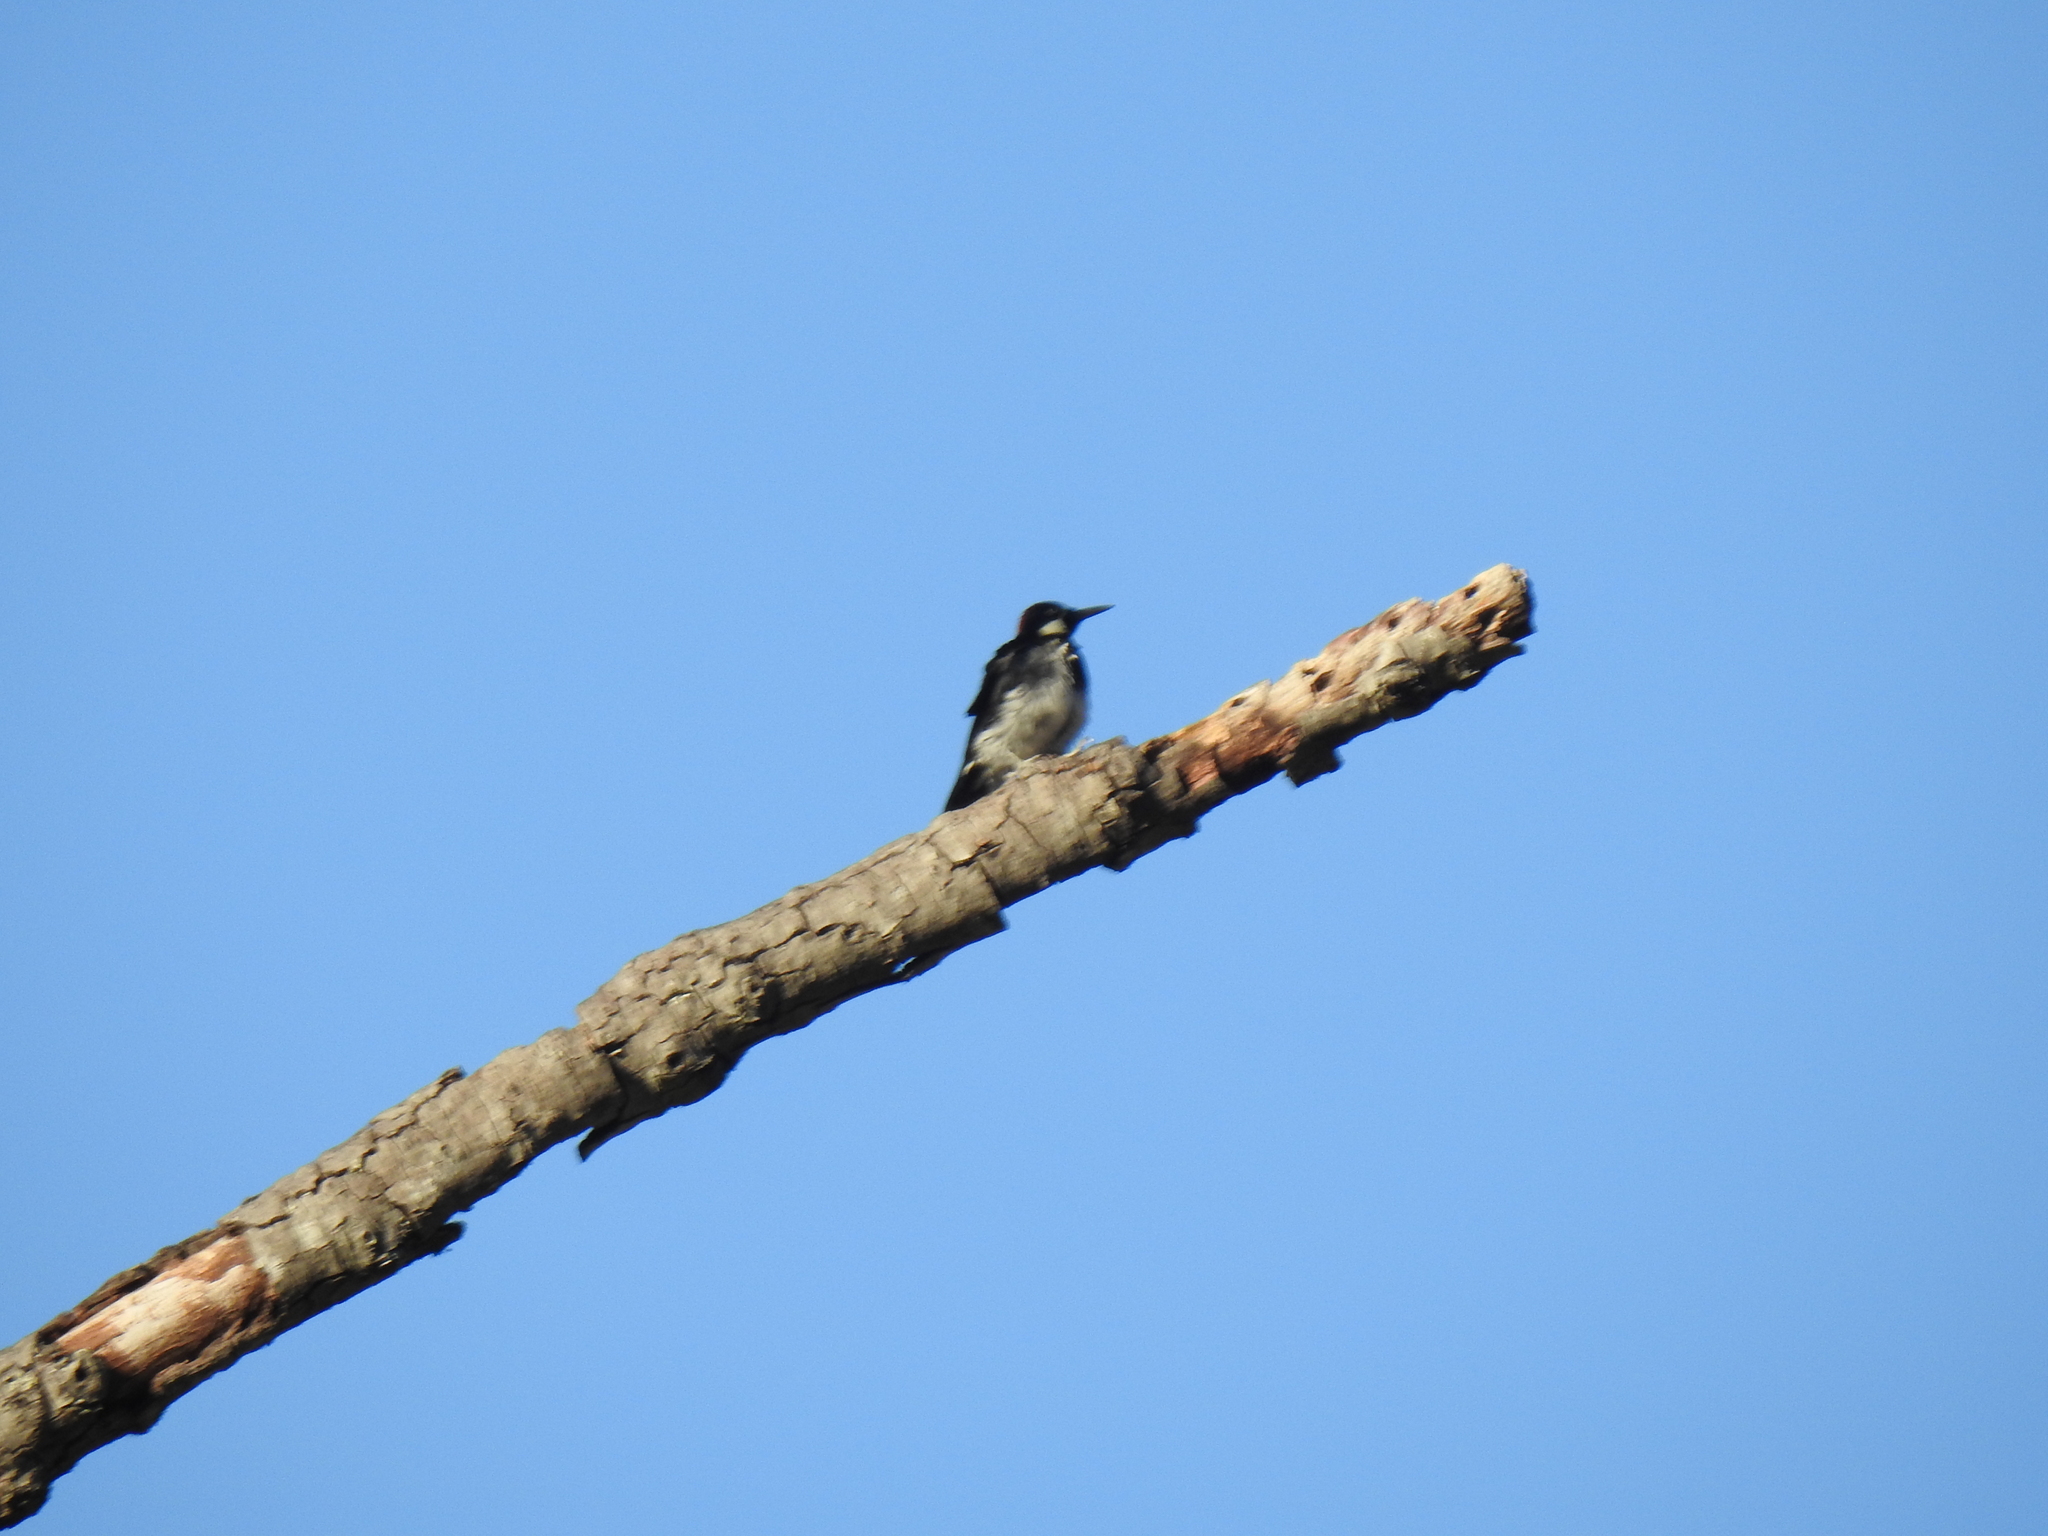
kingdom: Animalia
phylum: Chordata
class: Aves
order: Piciformes
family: Picidae
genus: Melanerpes
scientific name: Melanerpes formicivorus
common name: Acorn woodpecker
